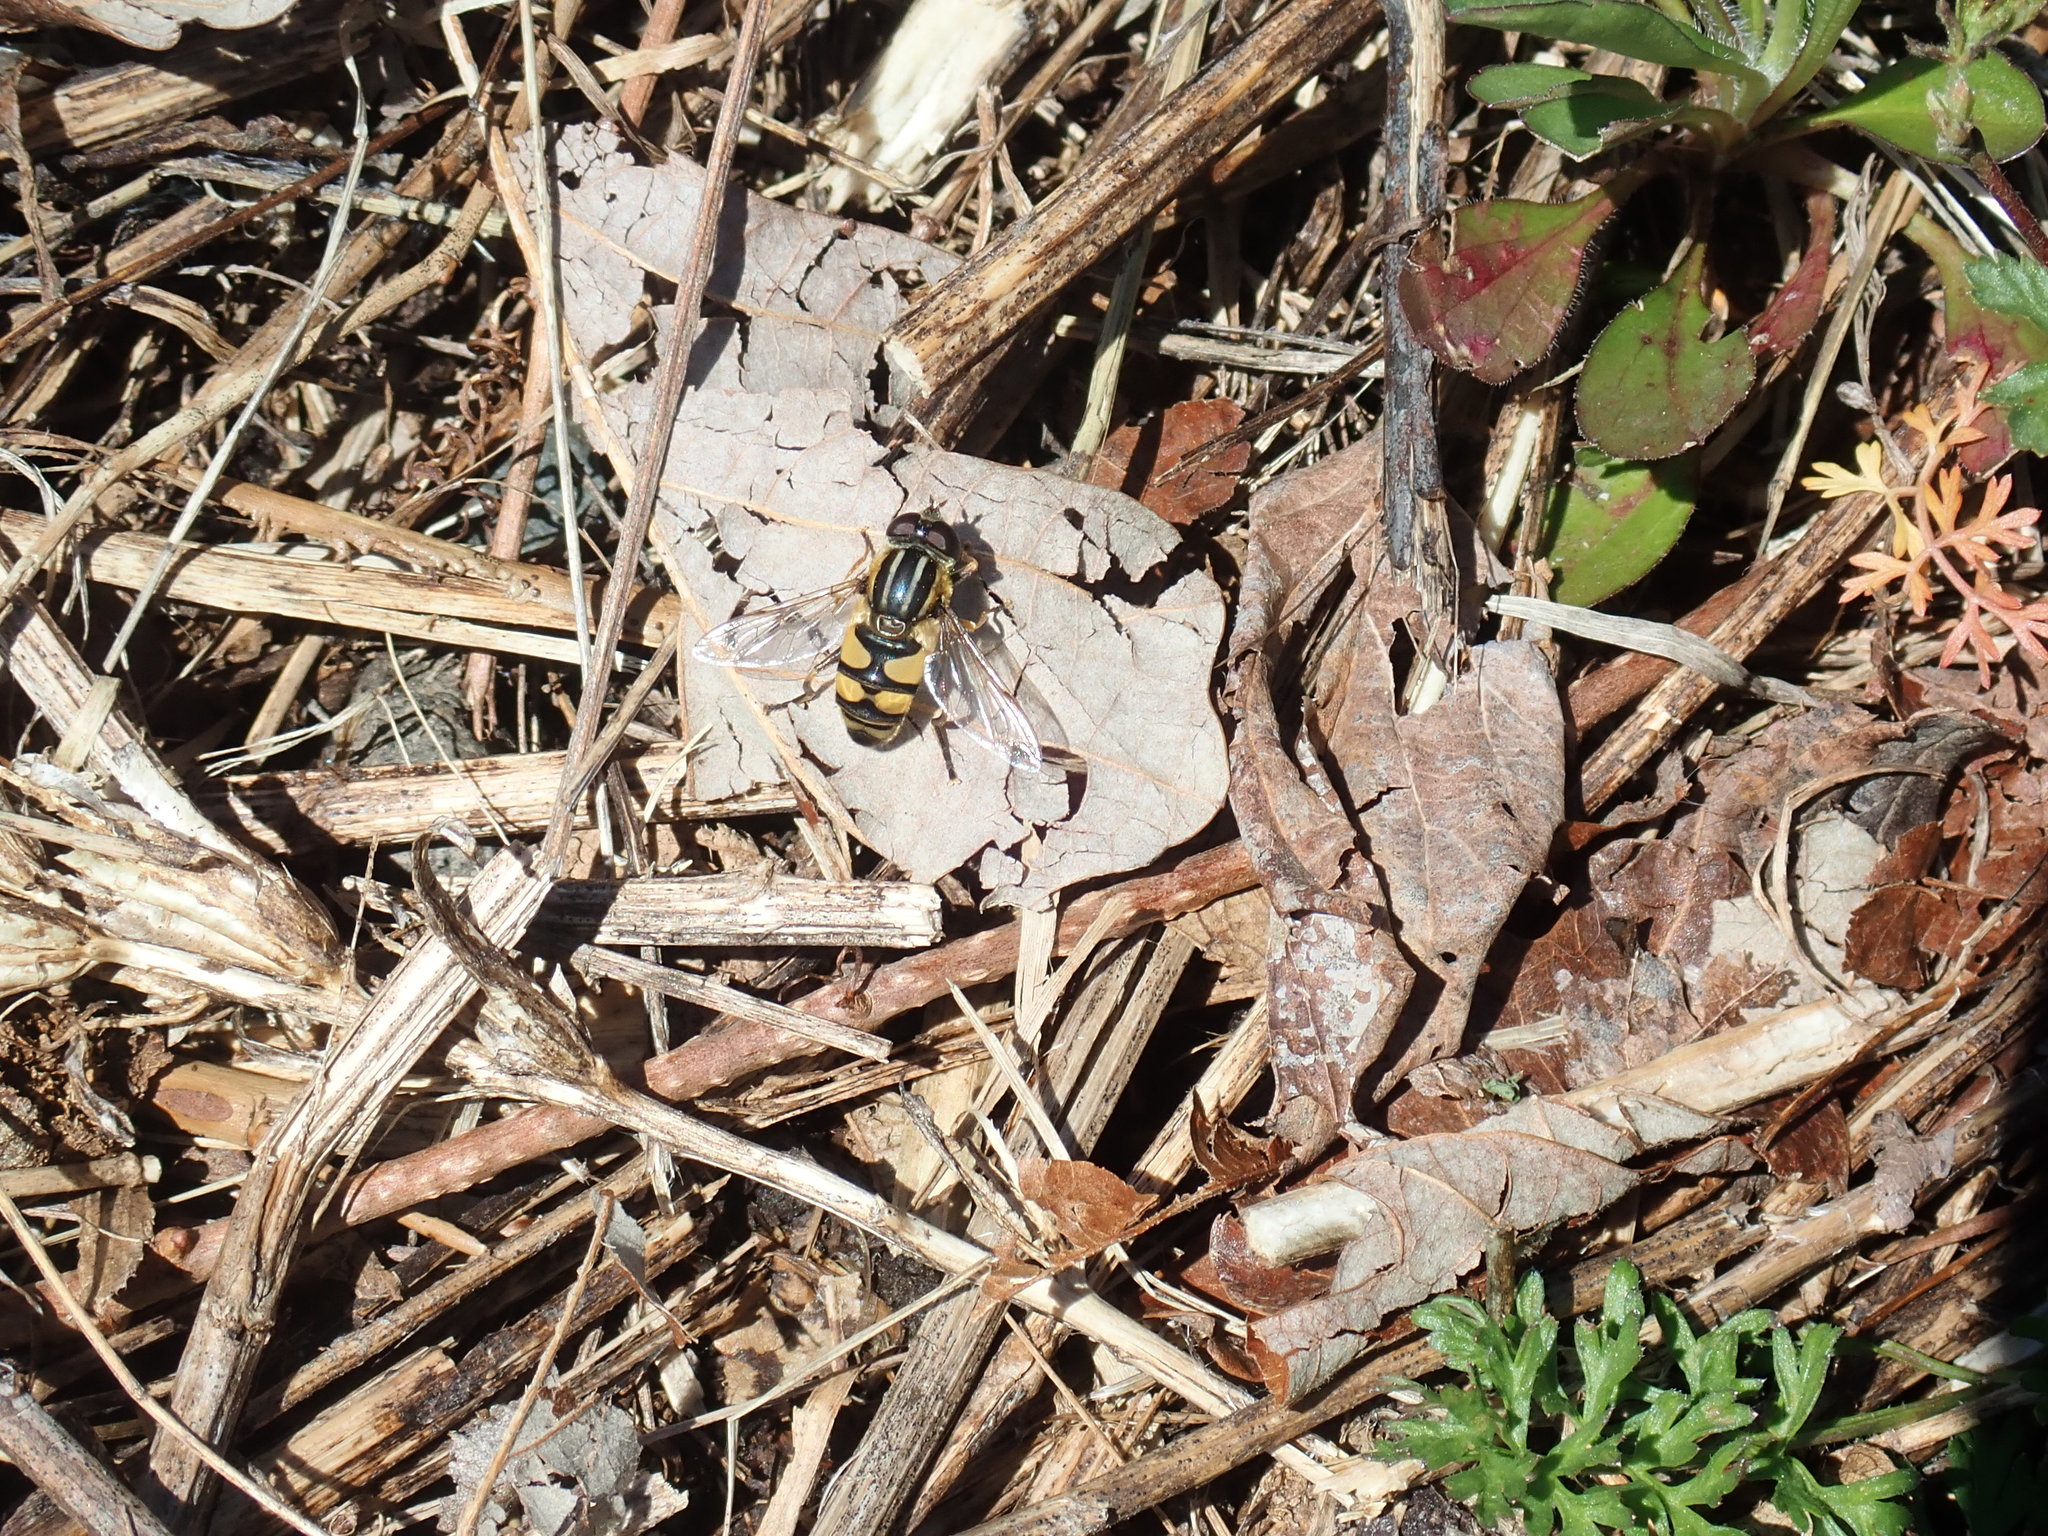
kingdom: Animalia
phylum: Arthropoda
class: Insecta
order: Diptera
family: Syrphidae
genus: Helophilus
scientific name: Helophilus fasciatus
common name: Narrow-headed marsh fly
